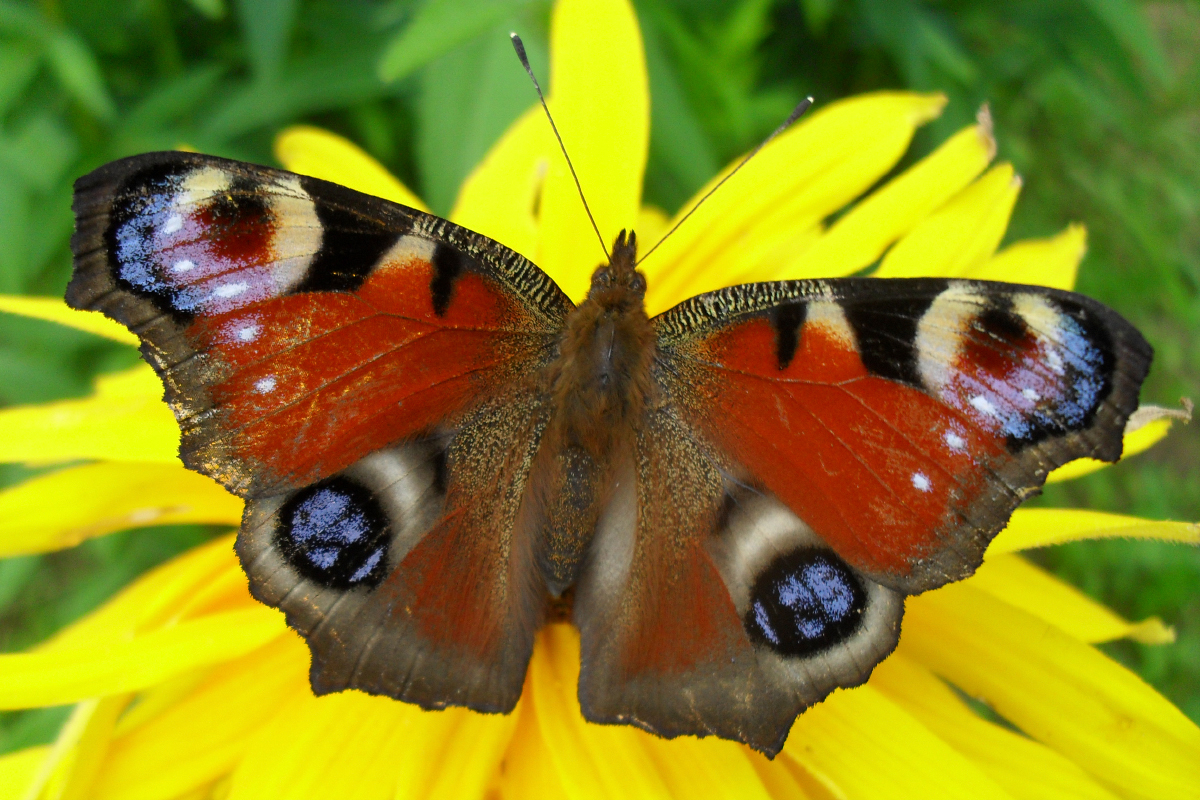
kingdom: Animalia
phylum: Arthropoda
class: Insecta
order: Lepidoptera
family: Nymphalidae
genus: Aglais
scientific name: Aglais io
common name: Peacock
